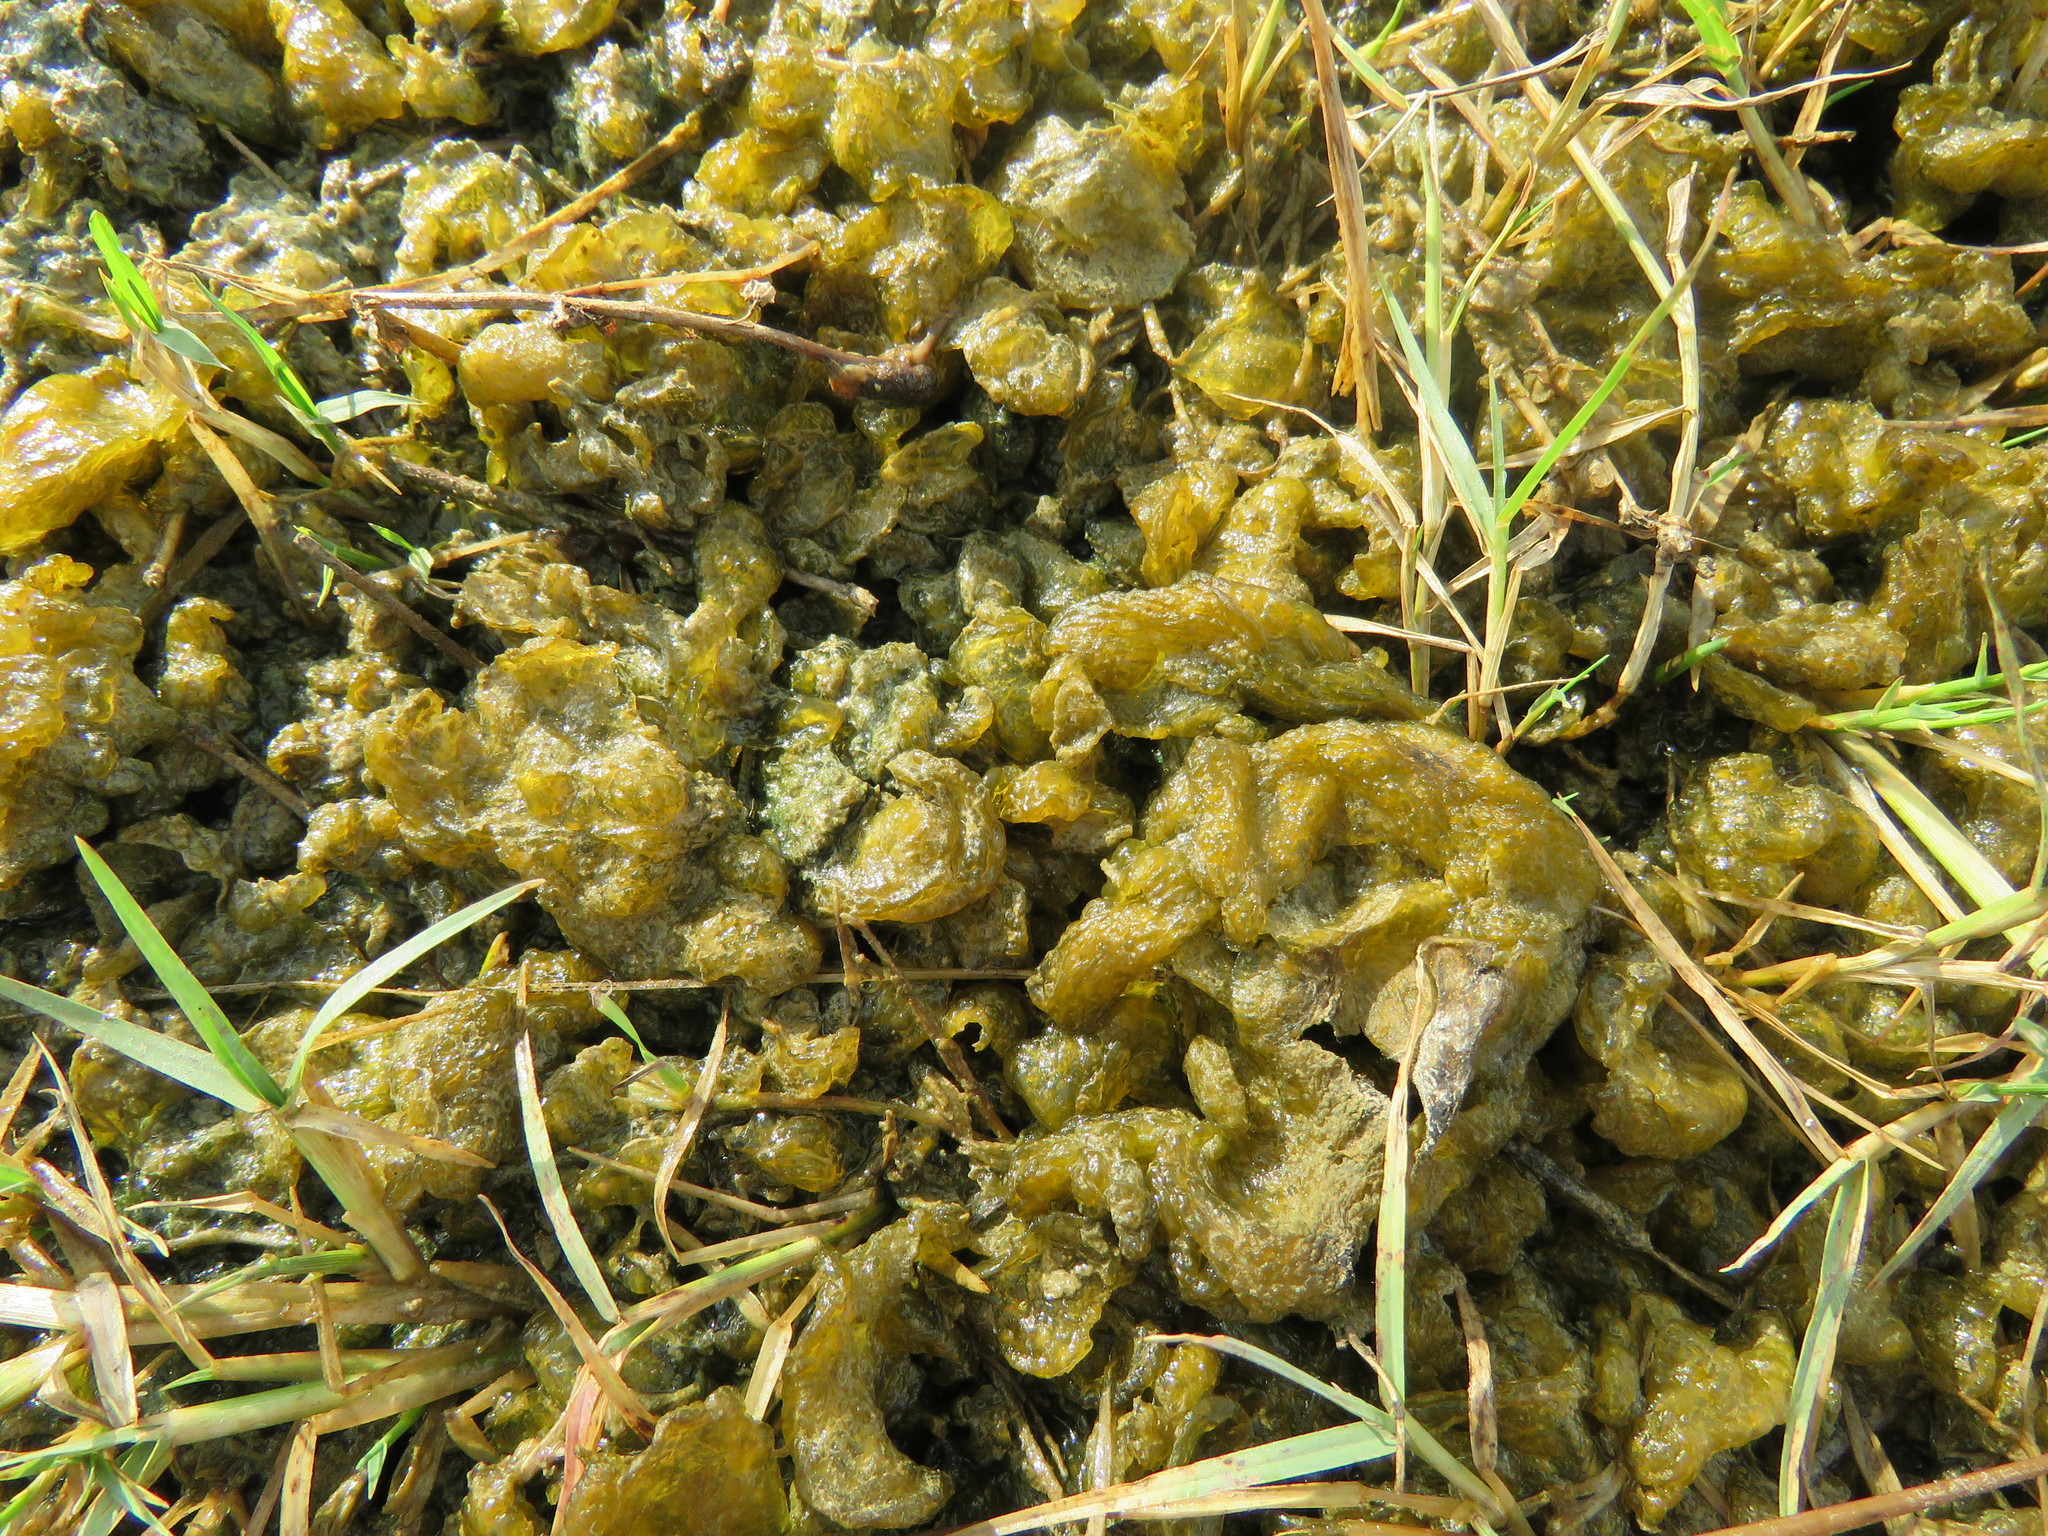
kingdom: Bacteria
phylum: Cyanobacteria
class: Cyanobacteriia
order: Cyanobacteriales
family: Nostocaceae
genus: Nostoc
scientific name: Nostoc commune
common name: Star jelly
